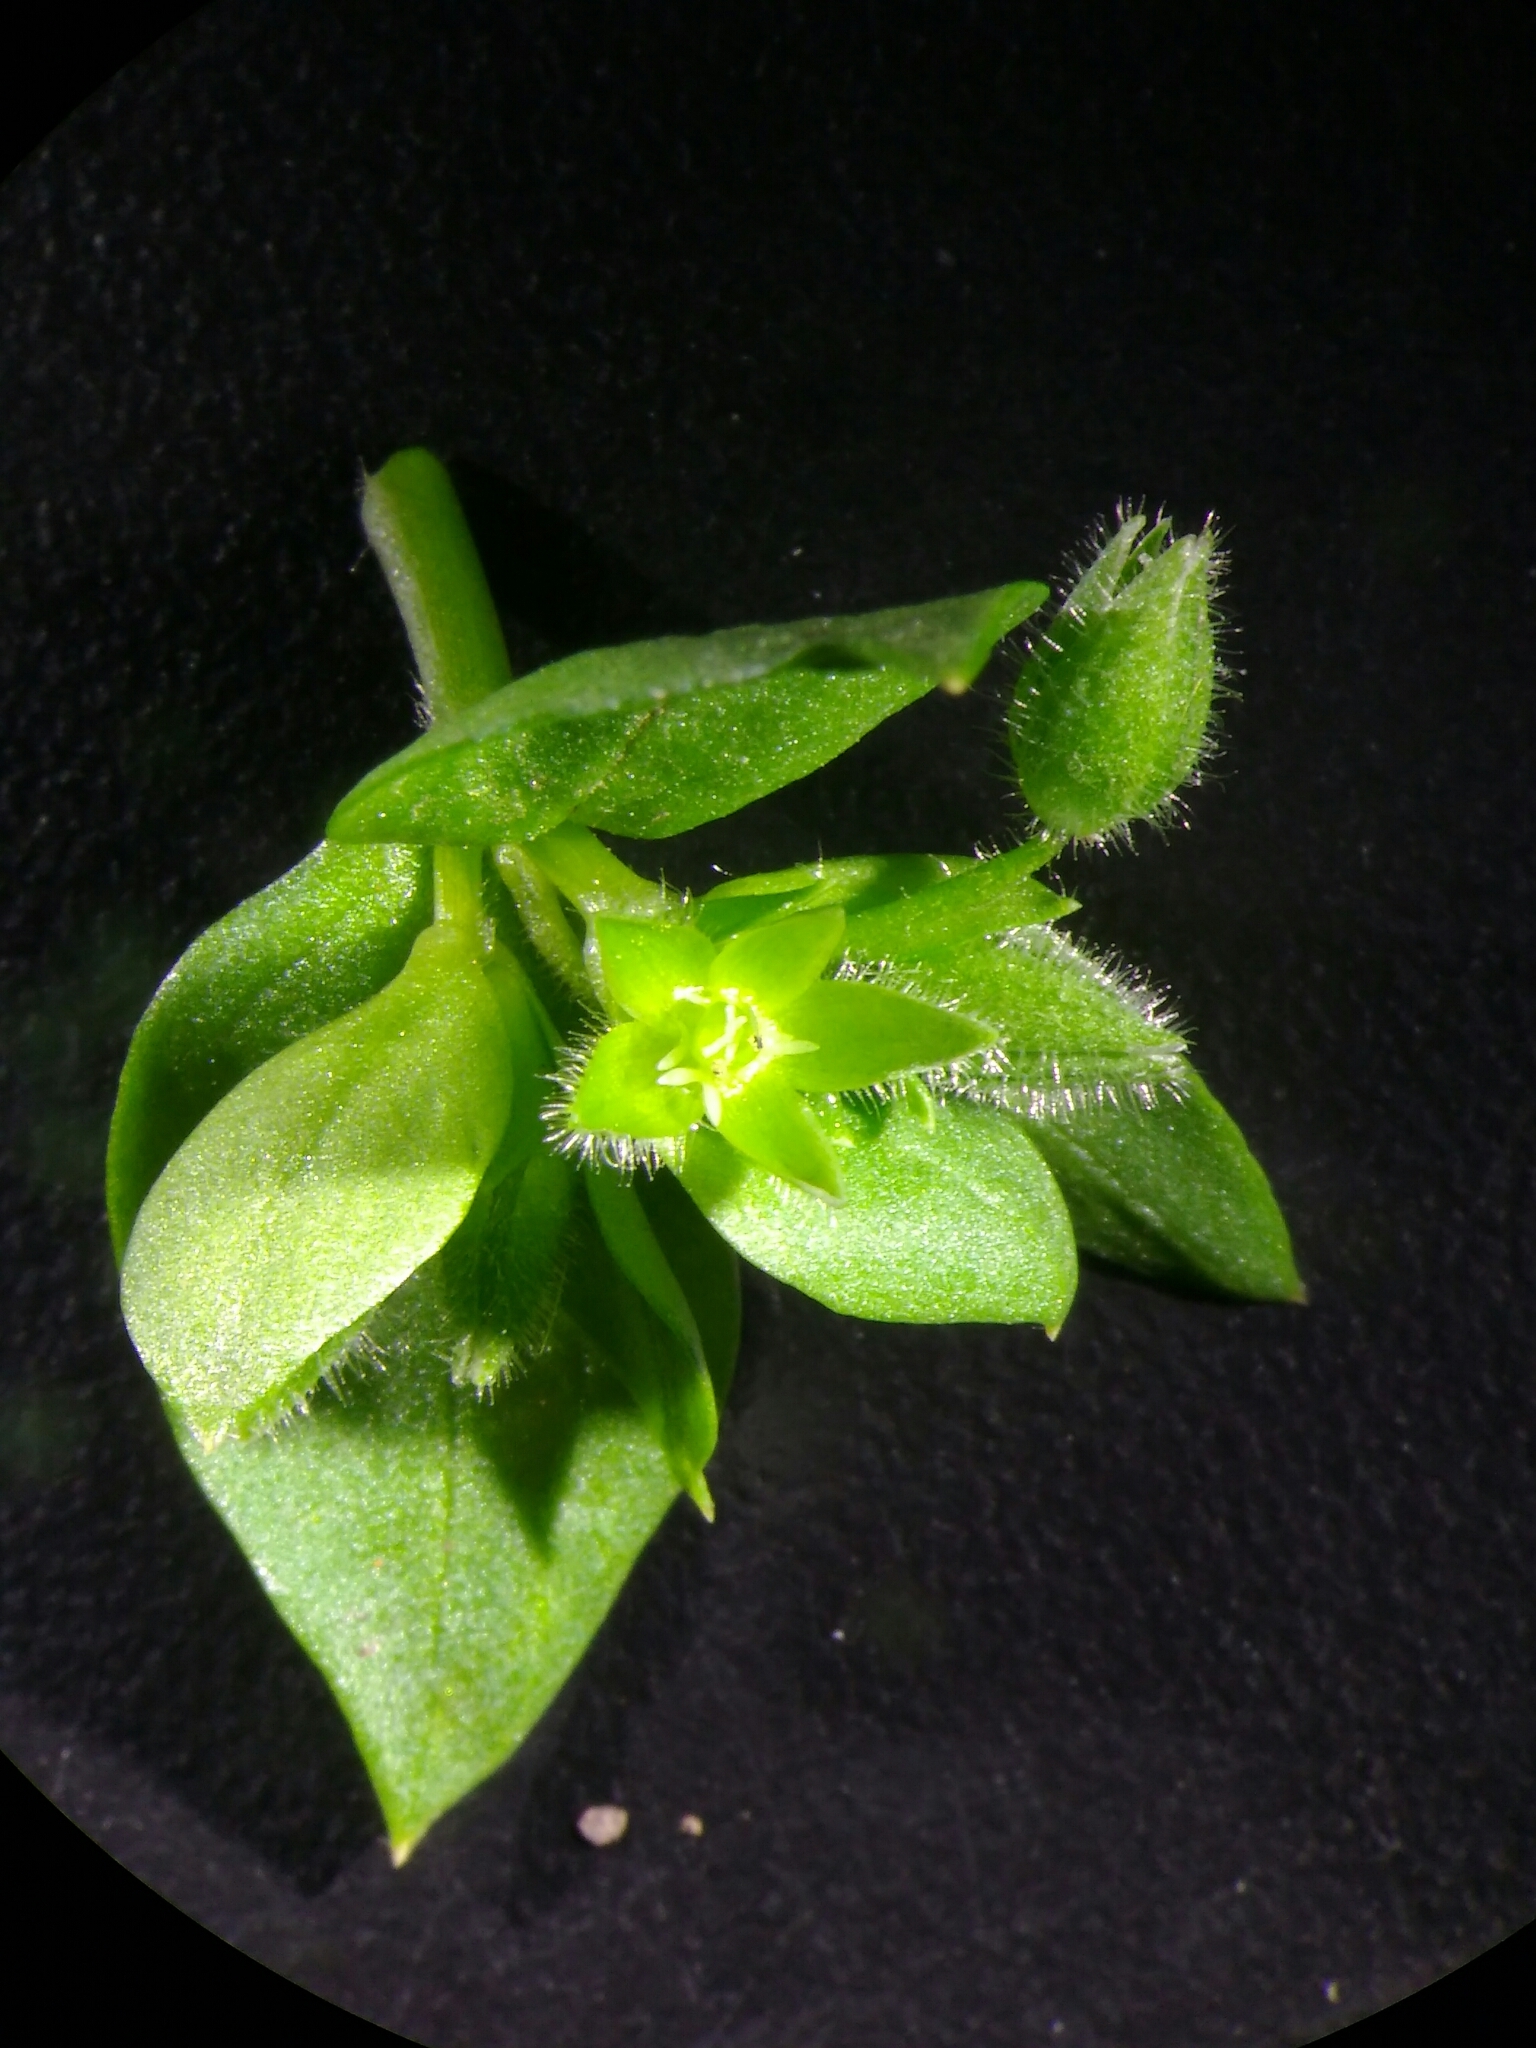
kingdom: Plantae
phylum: Tracheophyta
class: Magnoliopsida
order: Caryophyllales
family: Caryophyllaceae
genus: Stellaria
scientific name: Stellaria apetala
